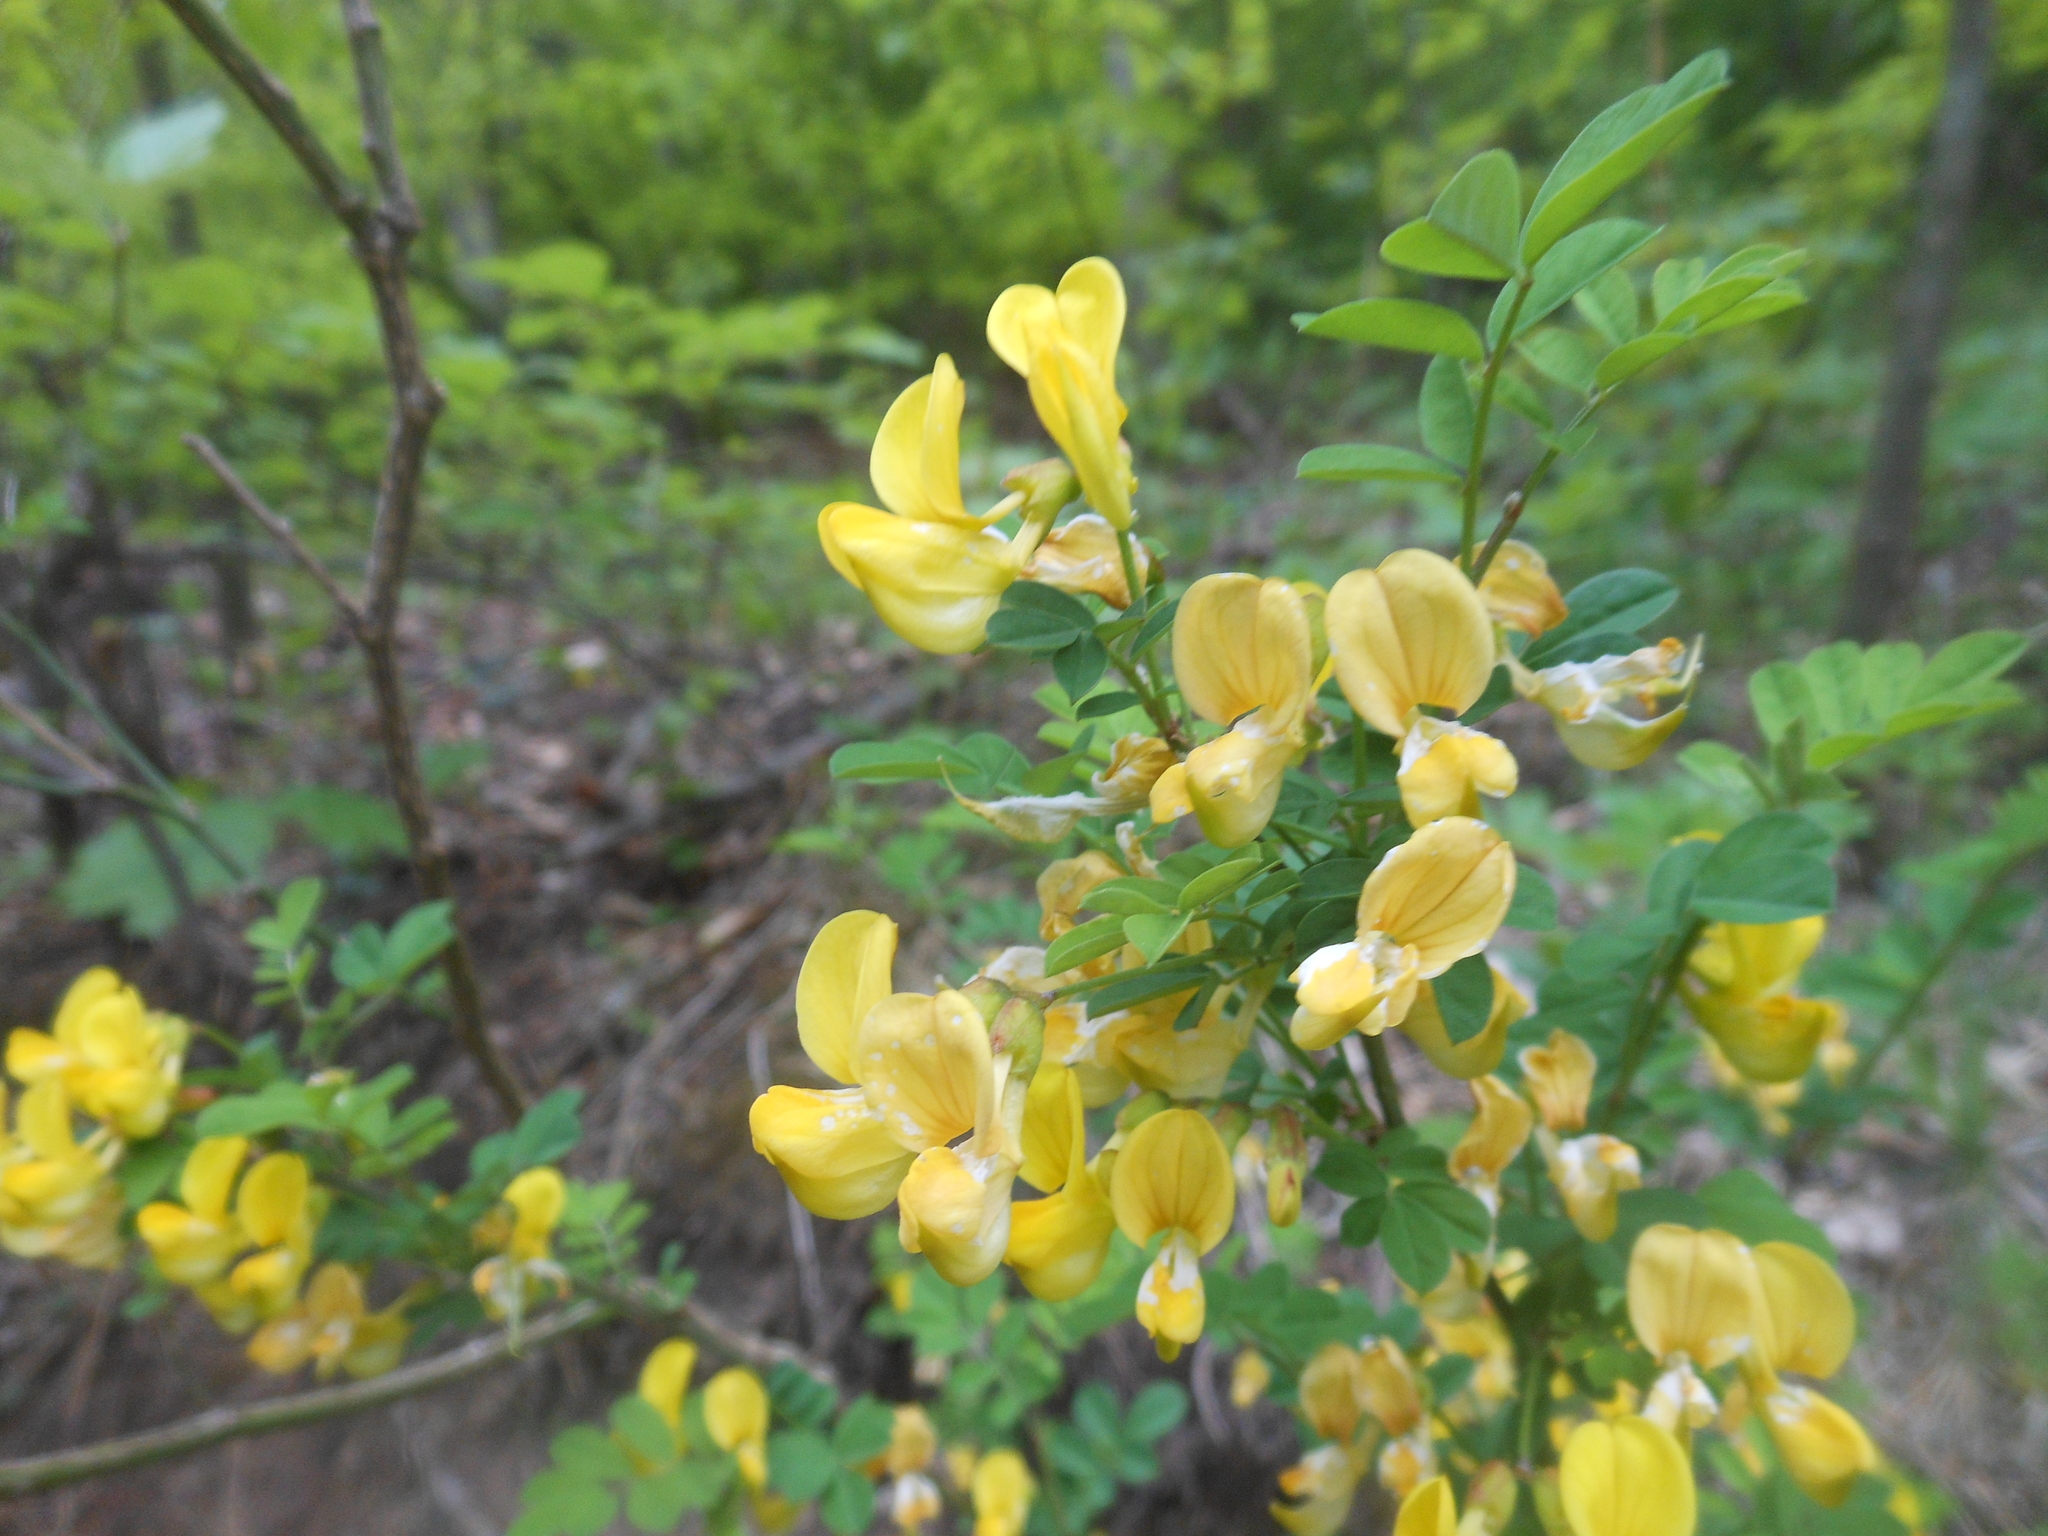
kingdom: Plantae
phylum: Tracheophyta
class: Magnoliopsida
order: Fabales
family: Fabaceae
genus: Hippocrepis
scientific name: Hippocrepis emerus
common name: Scorpion senna
